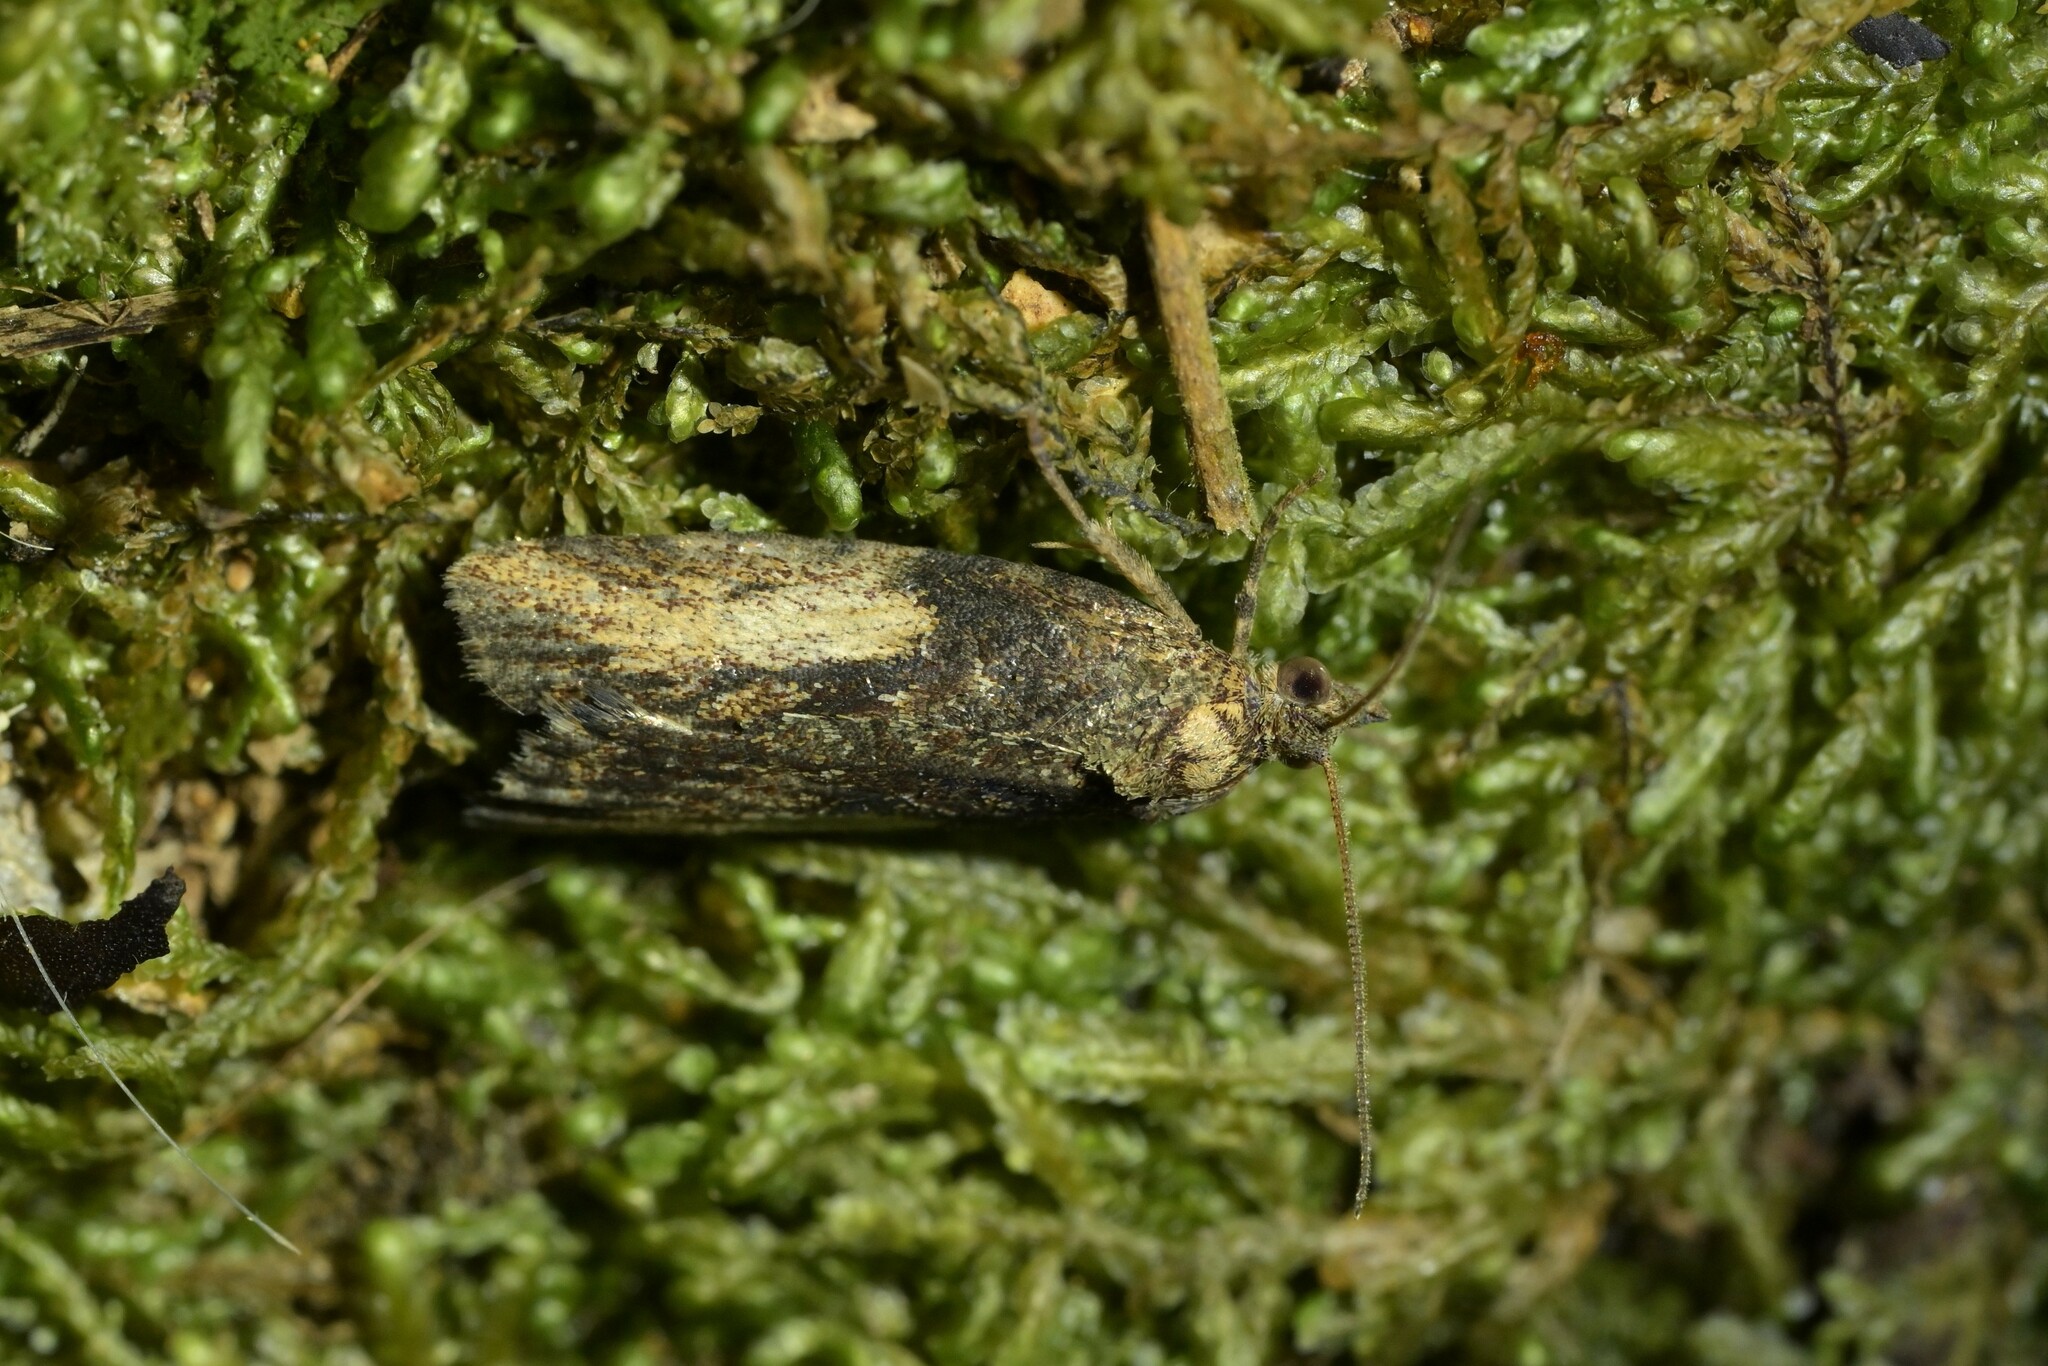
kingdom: Animalia
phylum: Arthropoda
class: Insecta
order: Lepidoptera
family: Tortricidae
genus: Harmologa
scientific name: Harmologa scoliastis
